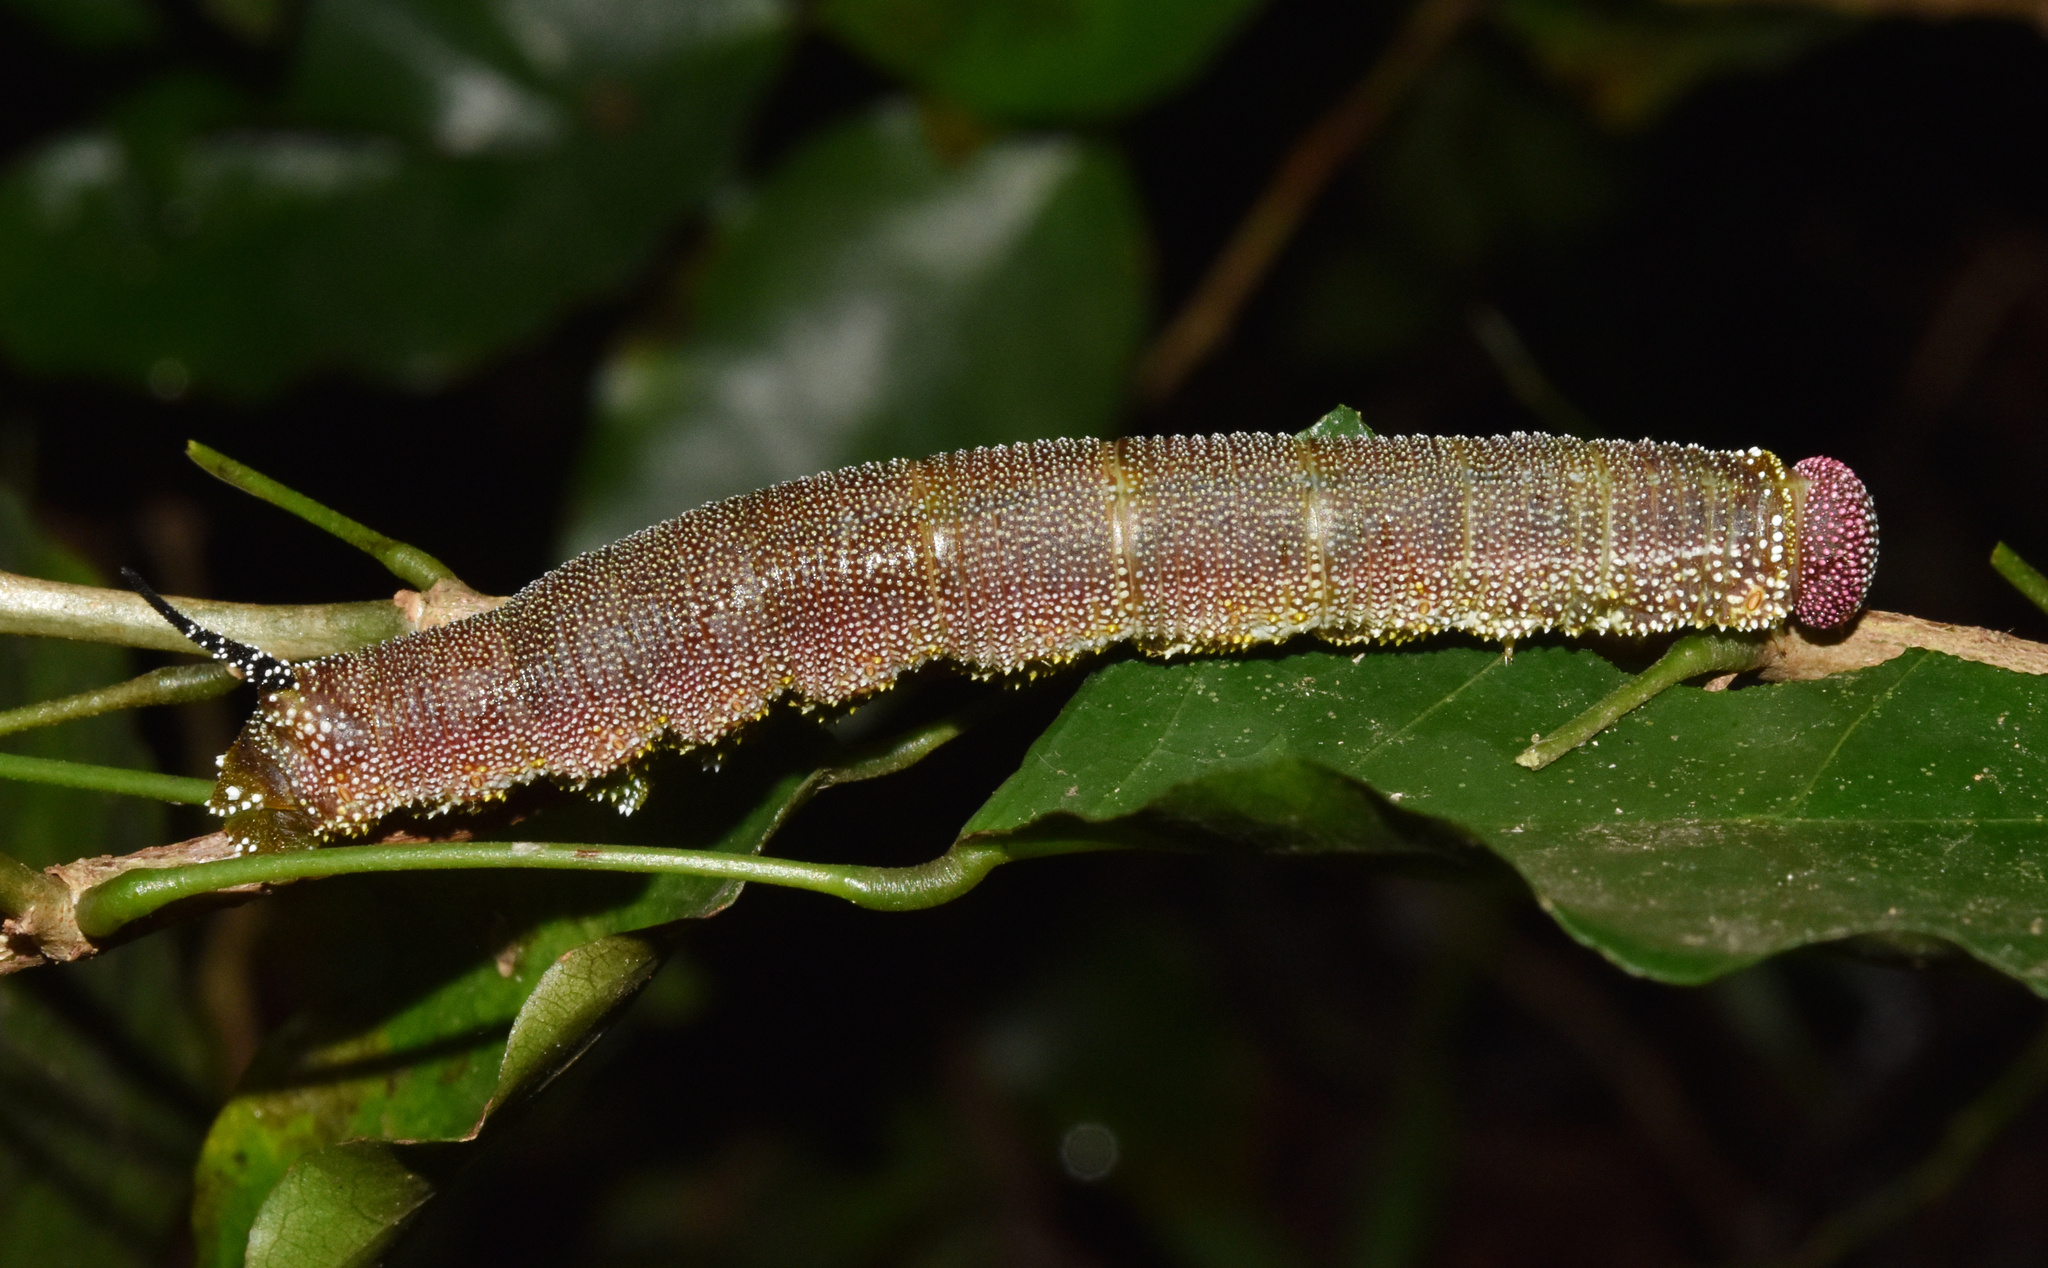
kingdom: Animalia
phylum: Arthropoda
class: Insecta
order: Lepidoptera
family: Sphingidae
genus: Pseudandriasa
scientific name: Pseudandriasa mutata
